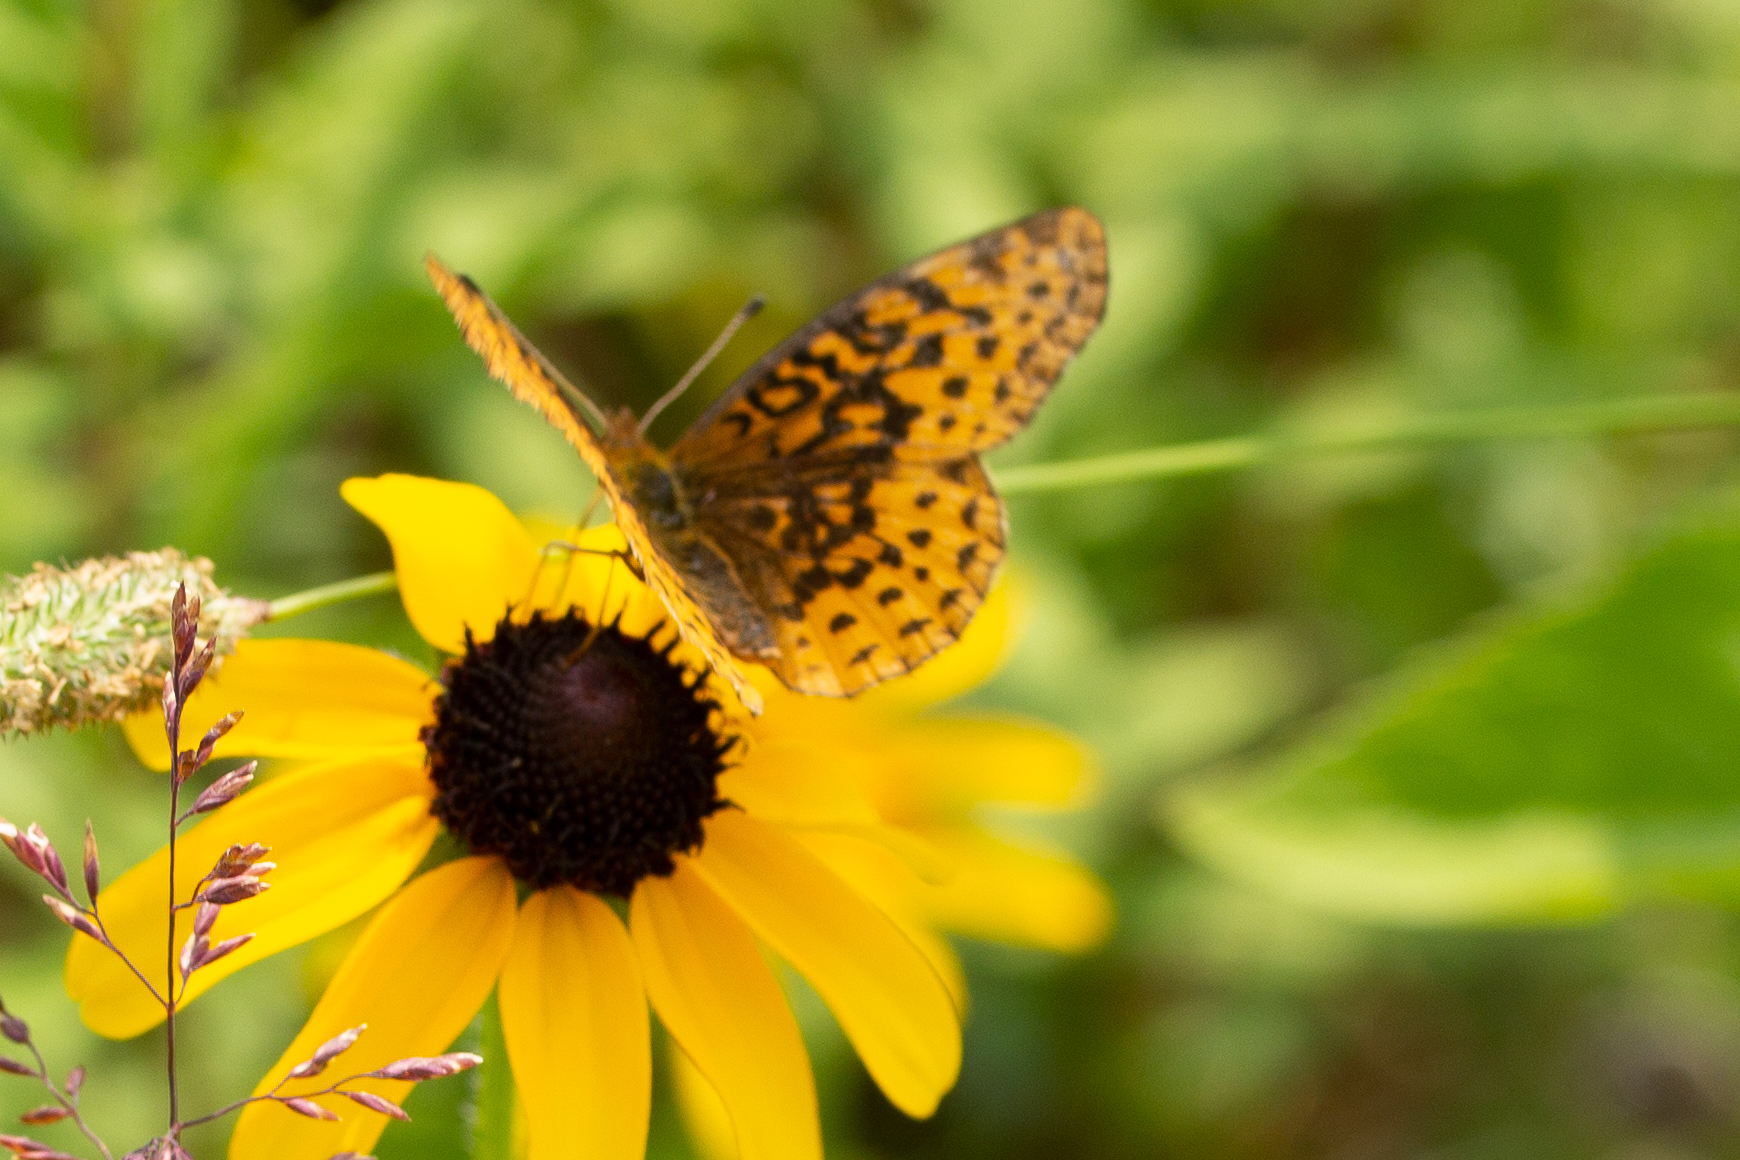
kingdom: Animalia
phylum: Arthropoda
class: Insecta
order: Lepidoptera
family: Nymphalidae
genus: Clossiana
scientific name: Clossiana toddi
